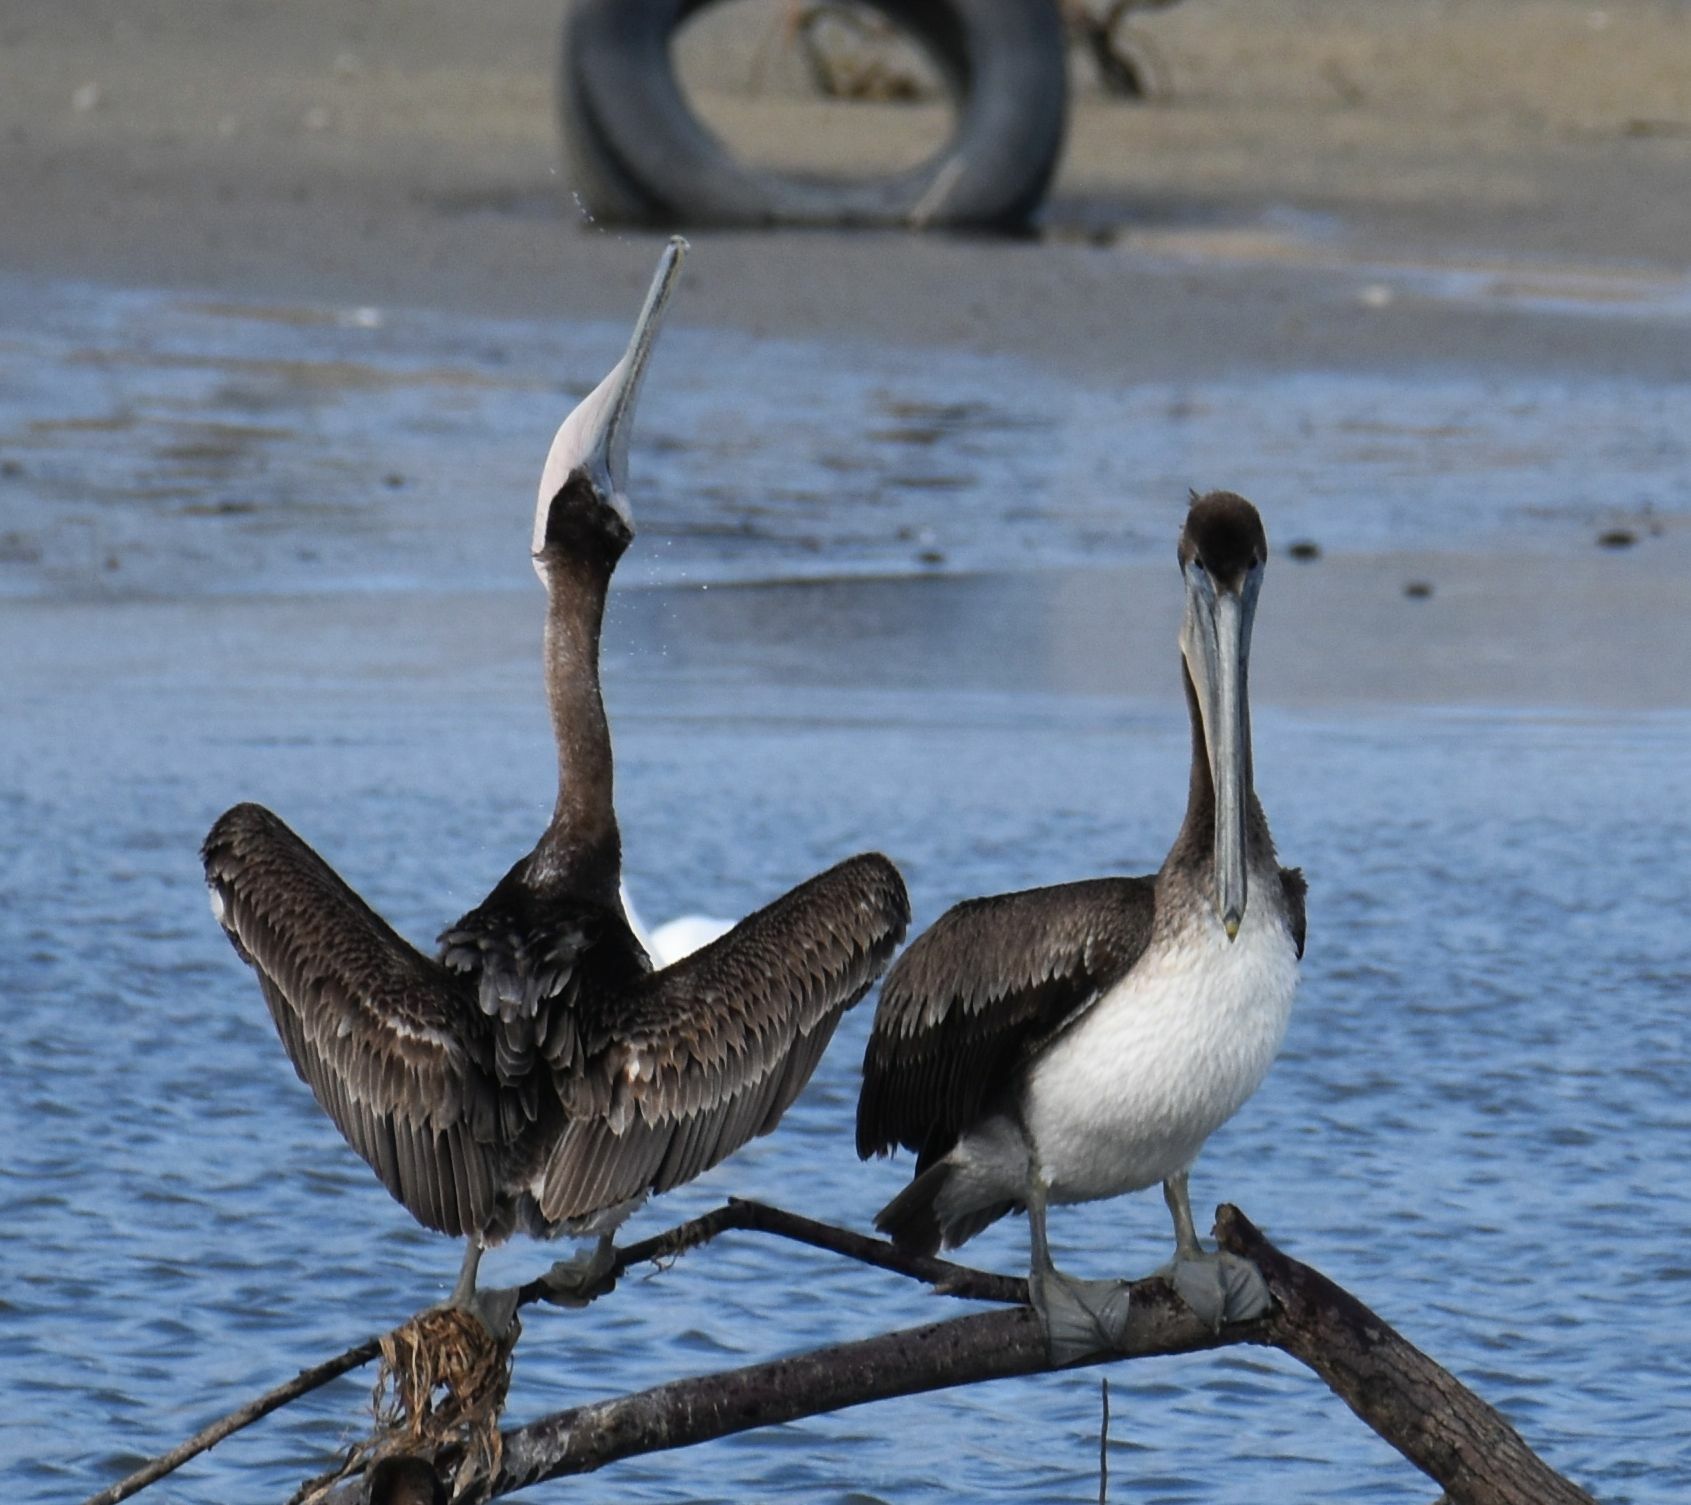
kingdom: Animalia
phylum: Chordata
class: Aves
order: Pelecaniformes
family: Pelecanidae
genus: Pelecanus
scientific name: Pelecanus occidentalis
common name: Brown pelican
